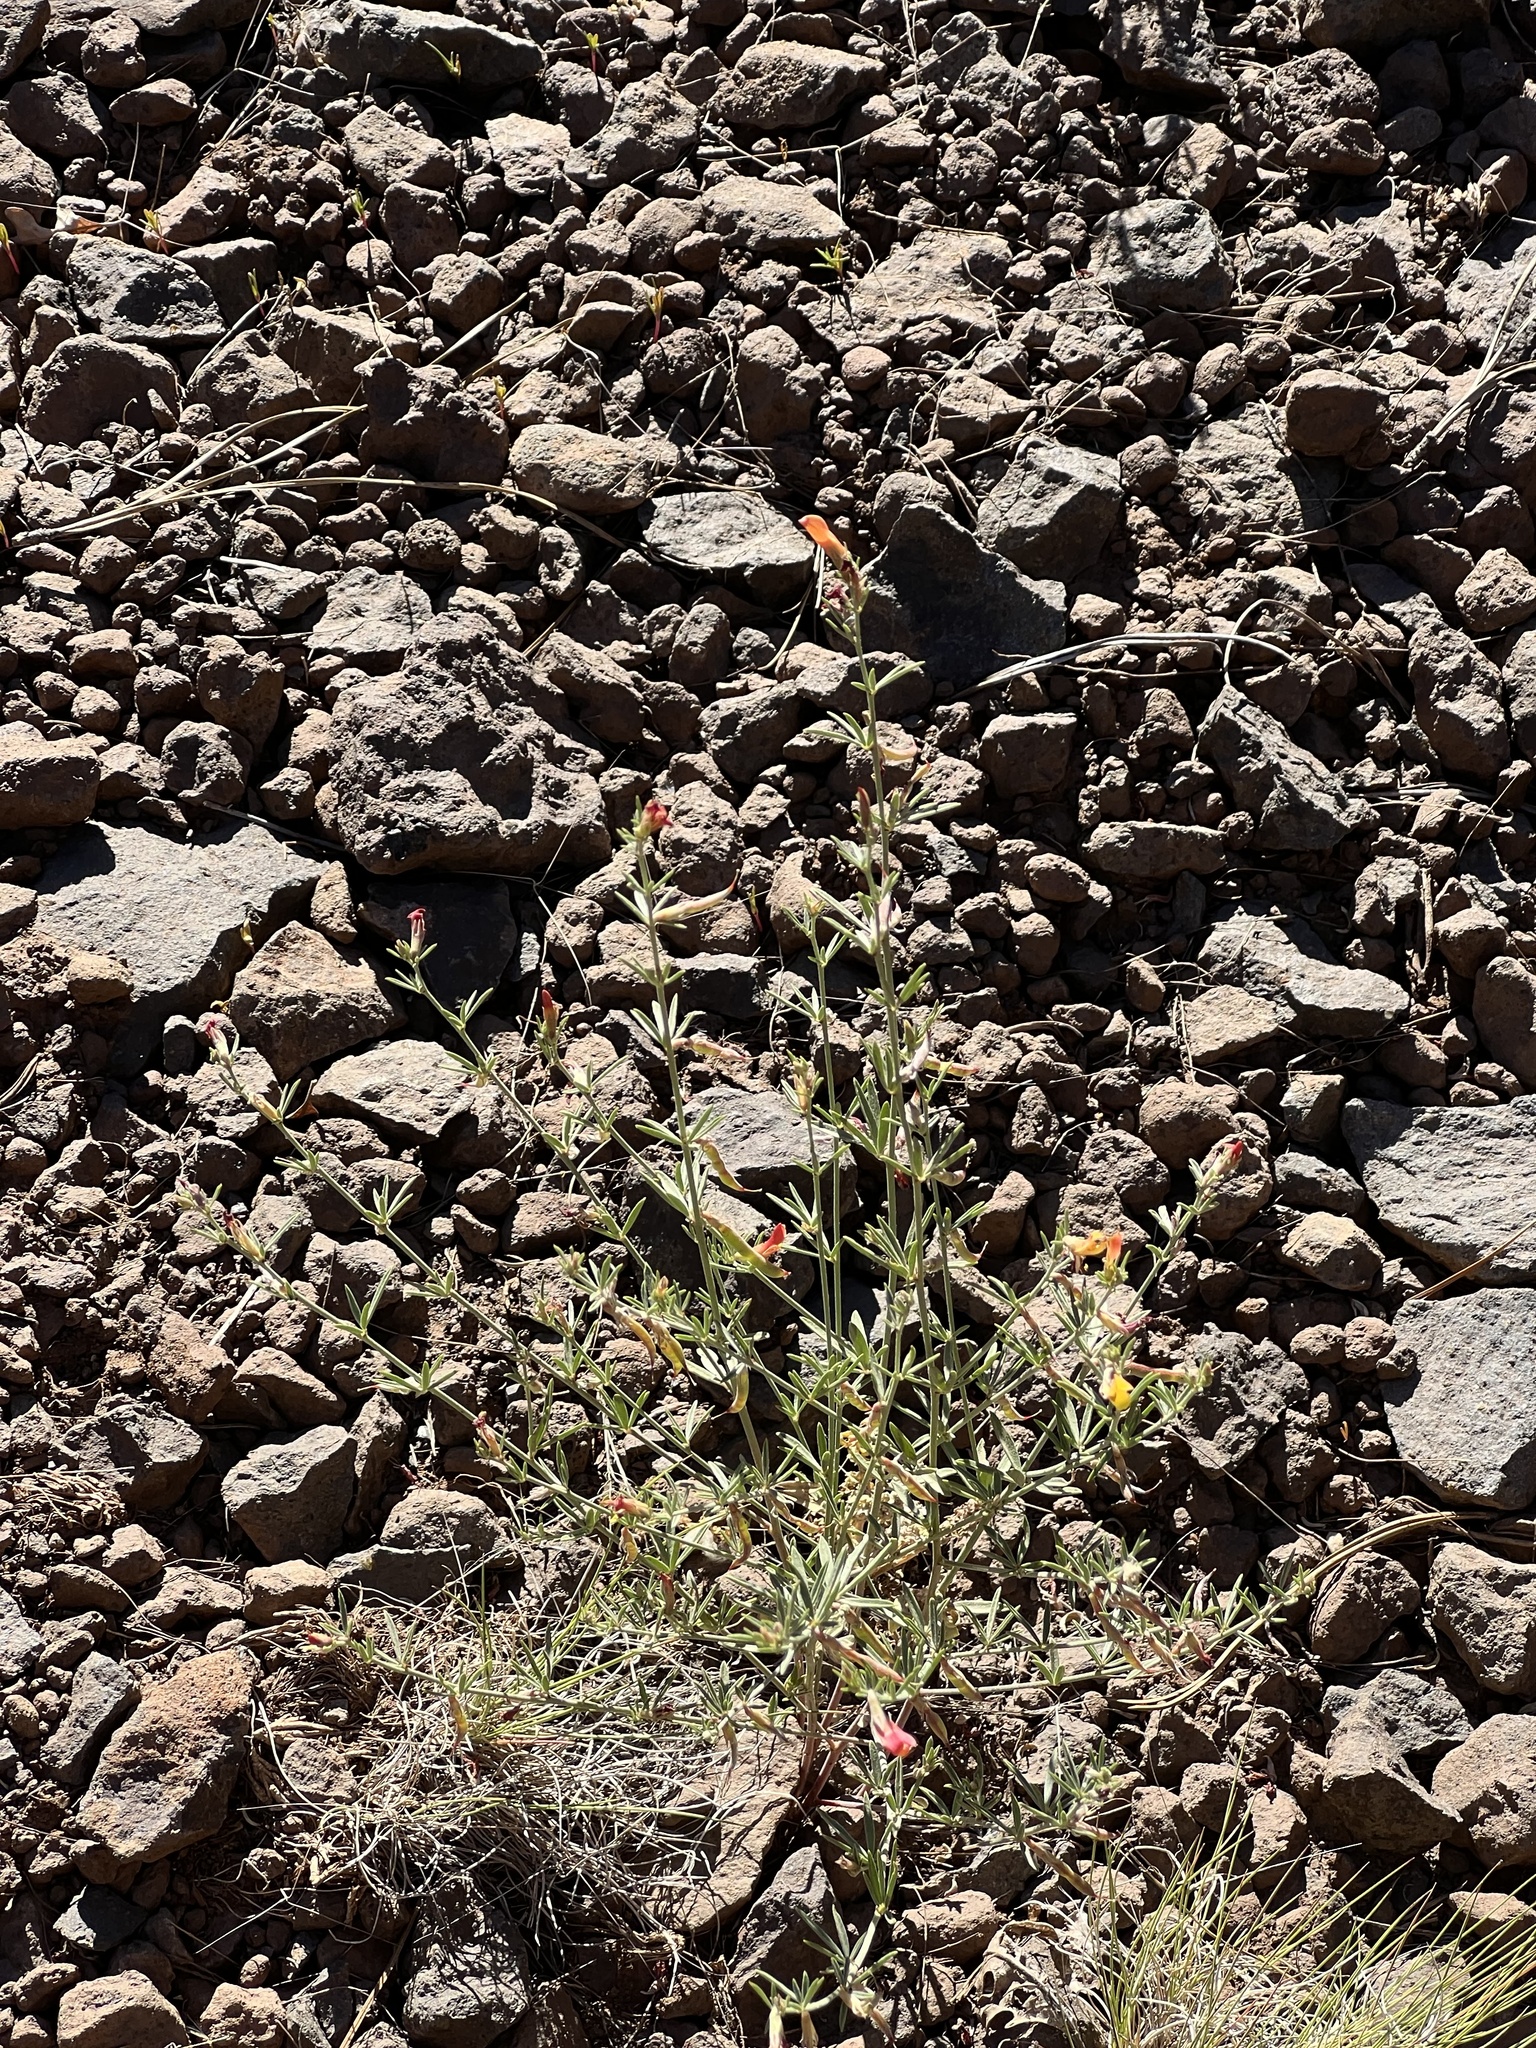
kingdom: Plantae
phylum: Tracheophyta
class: Magnoliopsida
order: Fabales
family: Fabaceae
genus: Acmispon
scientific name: Acmispon wrightii
